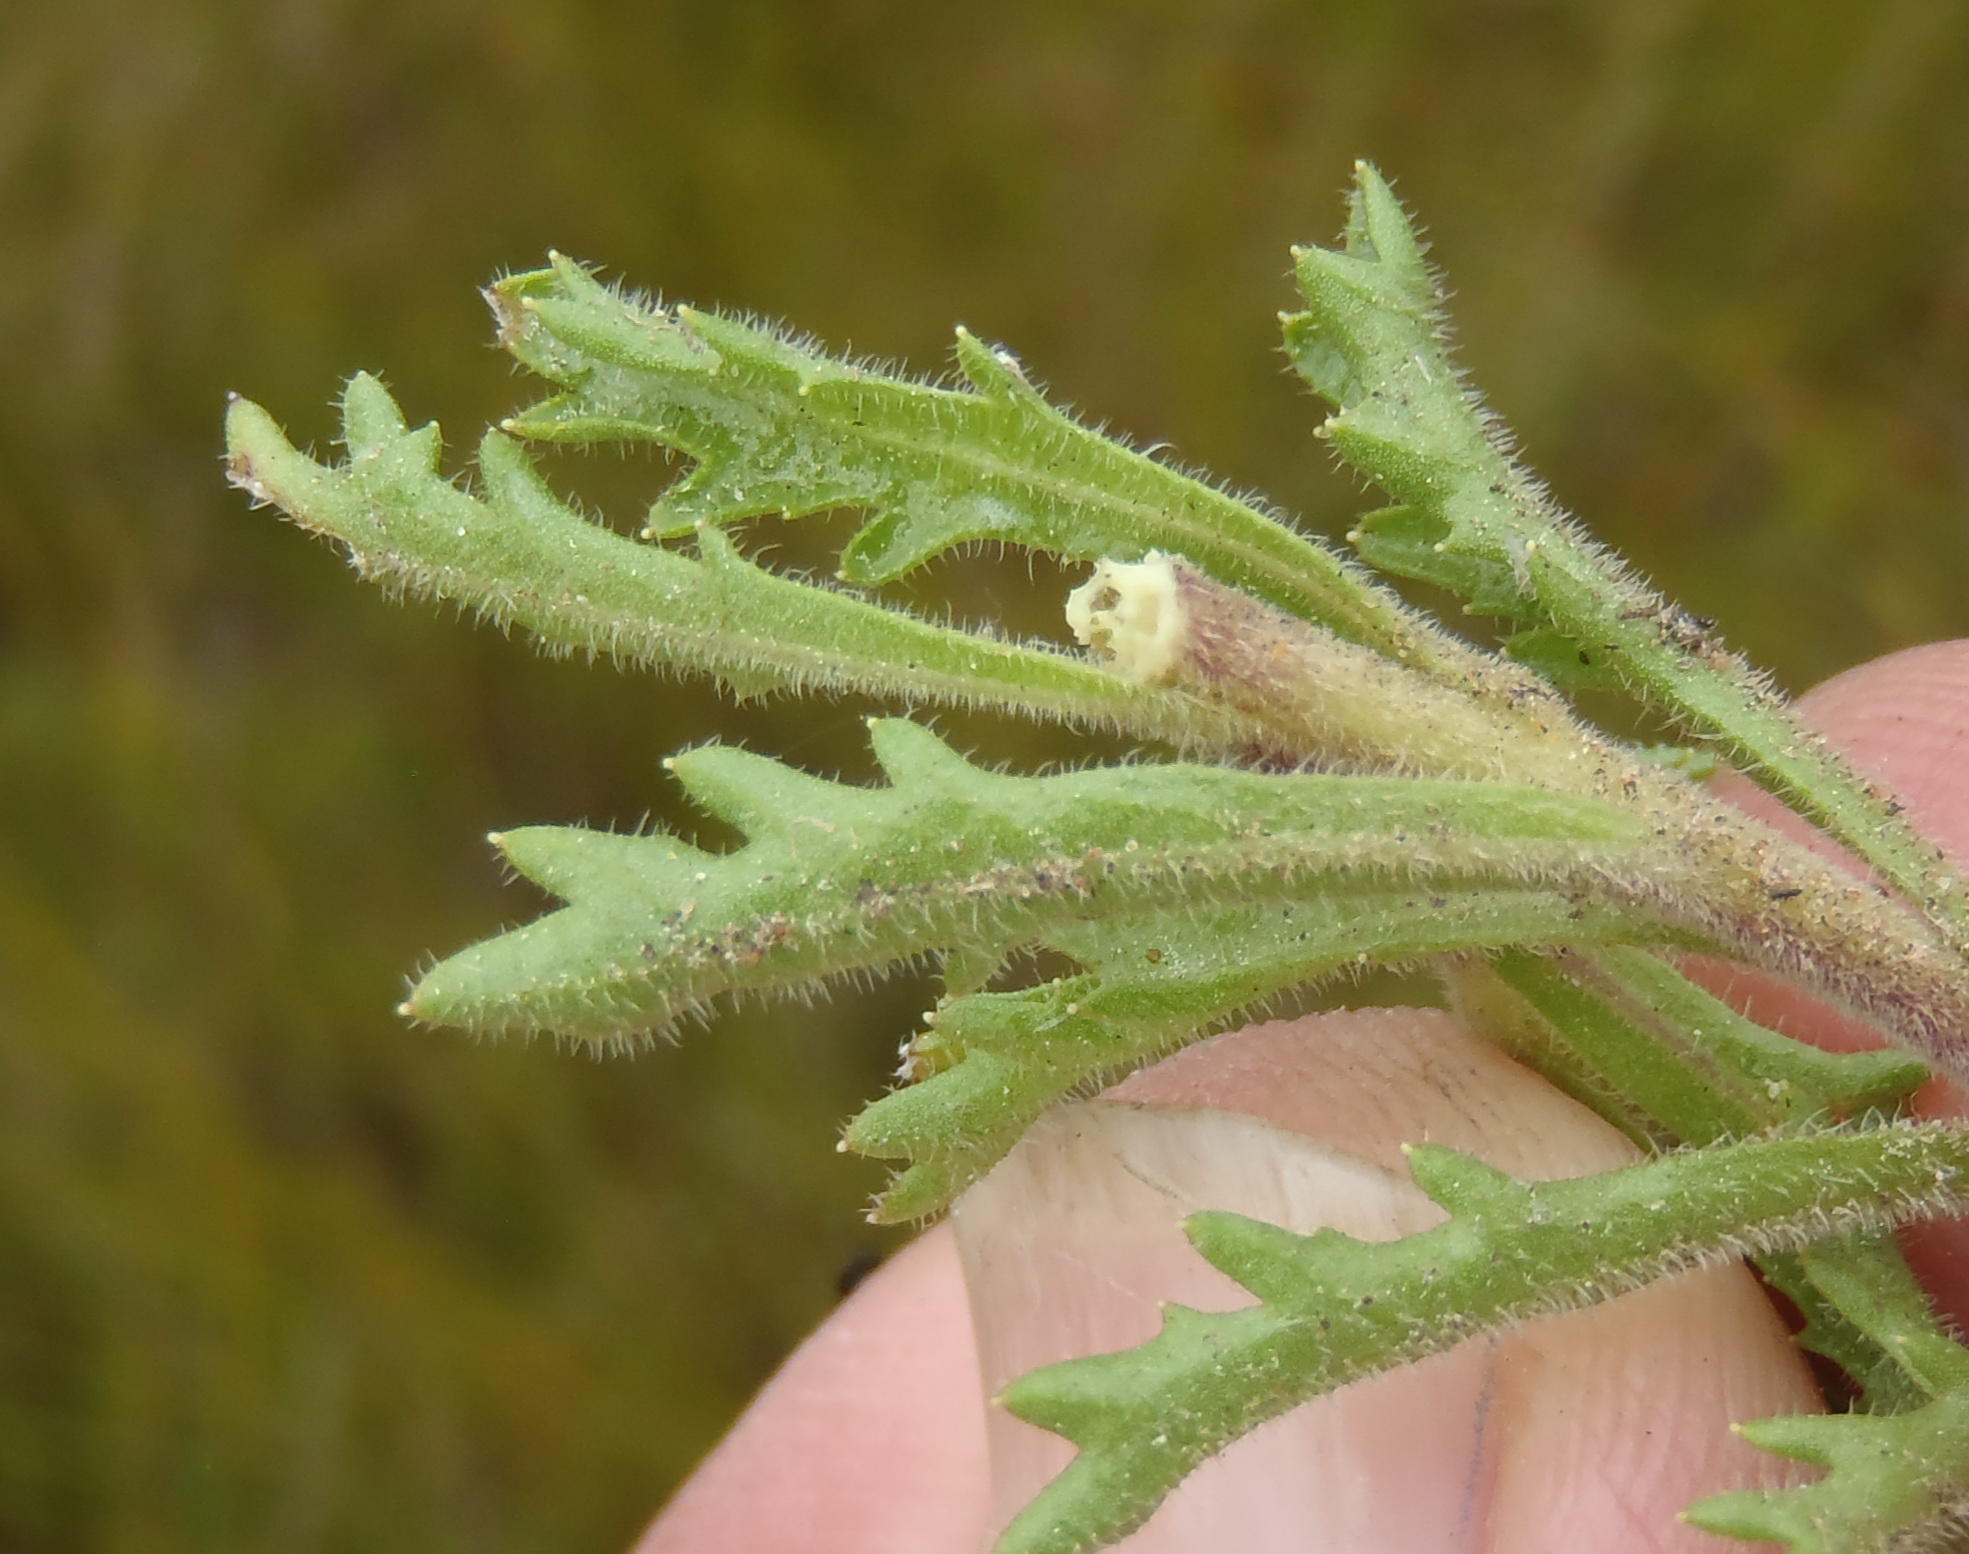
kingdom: Plantae
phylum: Tracheophyta
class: Magnoliopsida
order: Asterales
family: Campanulaceae
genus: Lobelia
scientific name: Lobelia tomentosa
